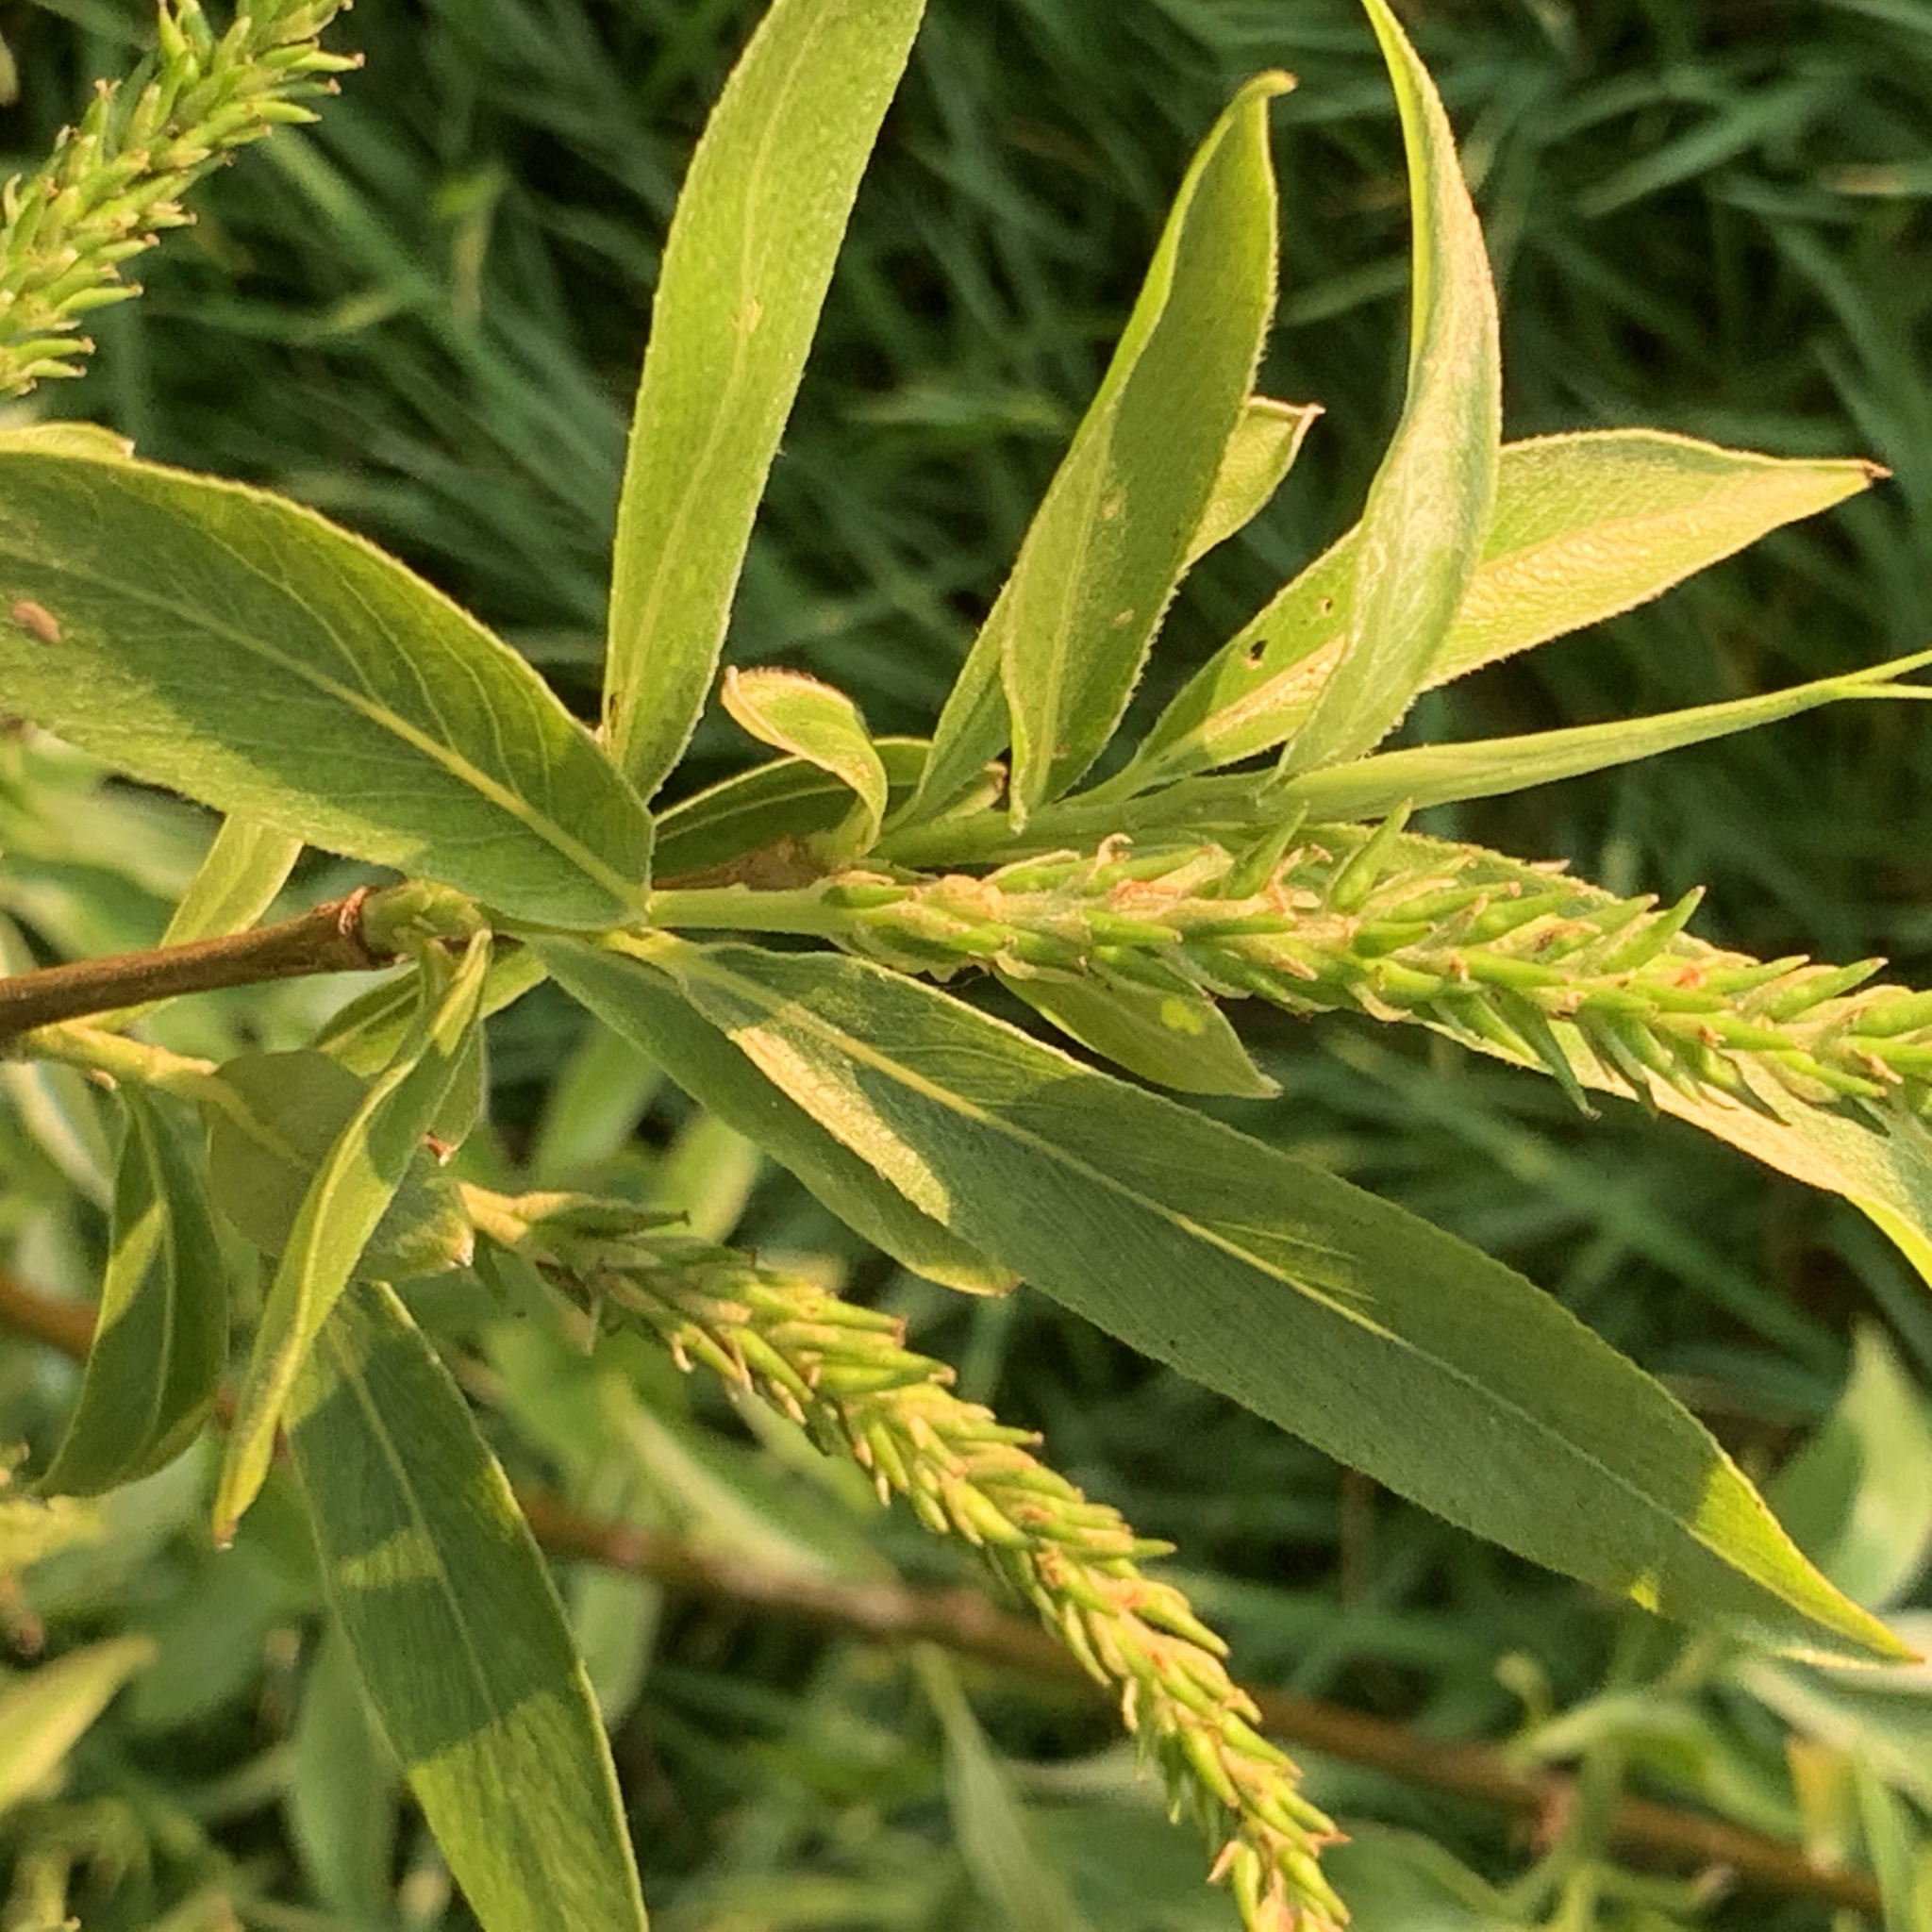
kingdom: Plantae
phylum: Tracheophyta
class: Magnoliopsida
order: Malpighiales
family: Salicaceae
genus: Salix
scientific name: Salix fragilis
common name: Crack willow
